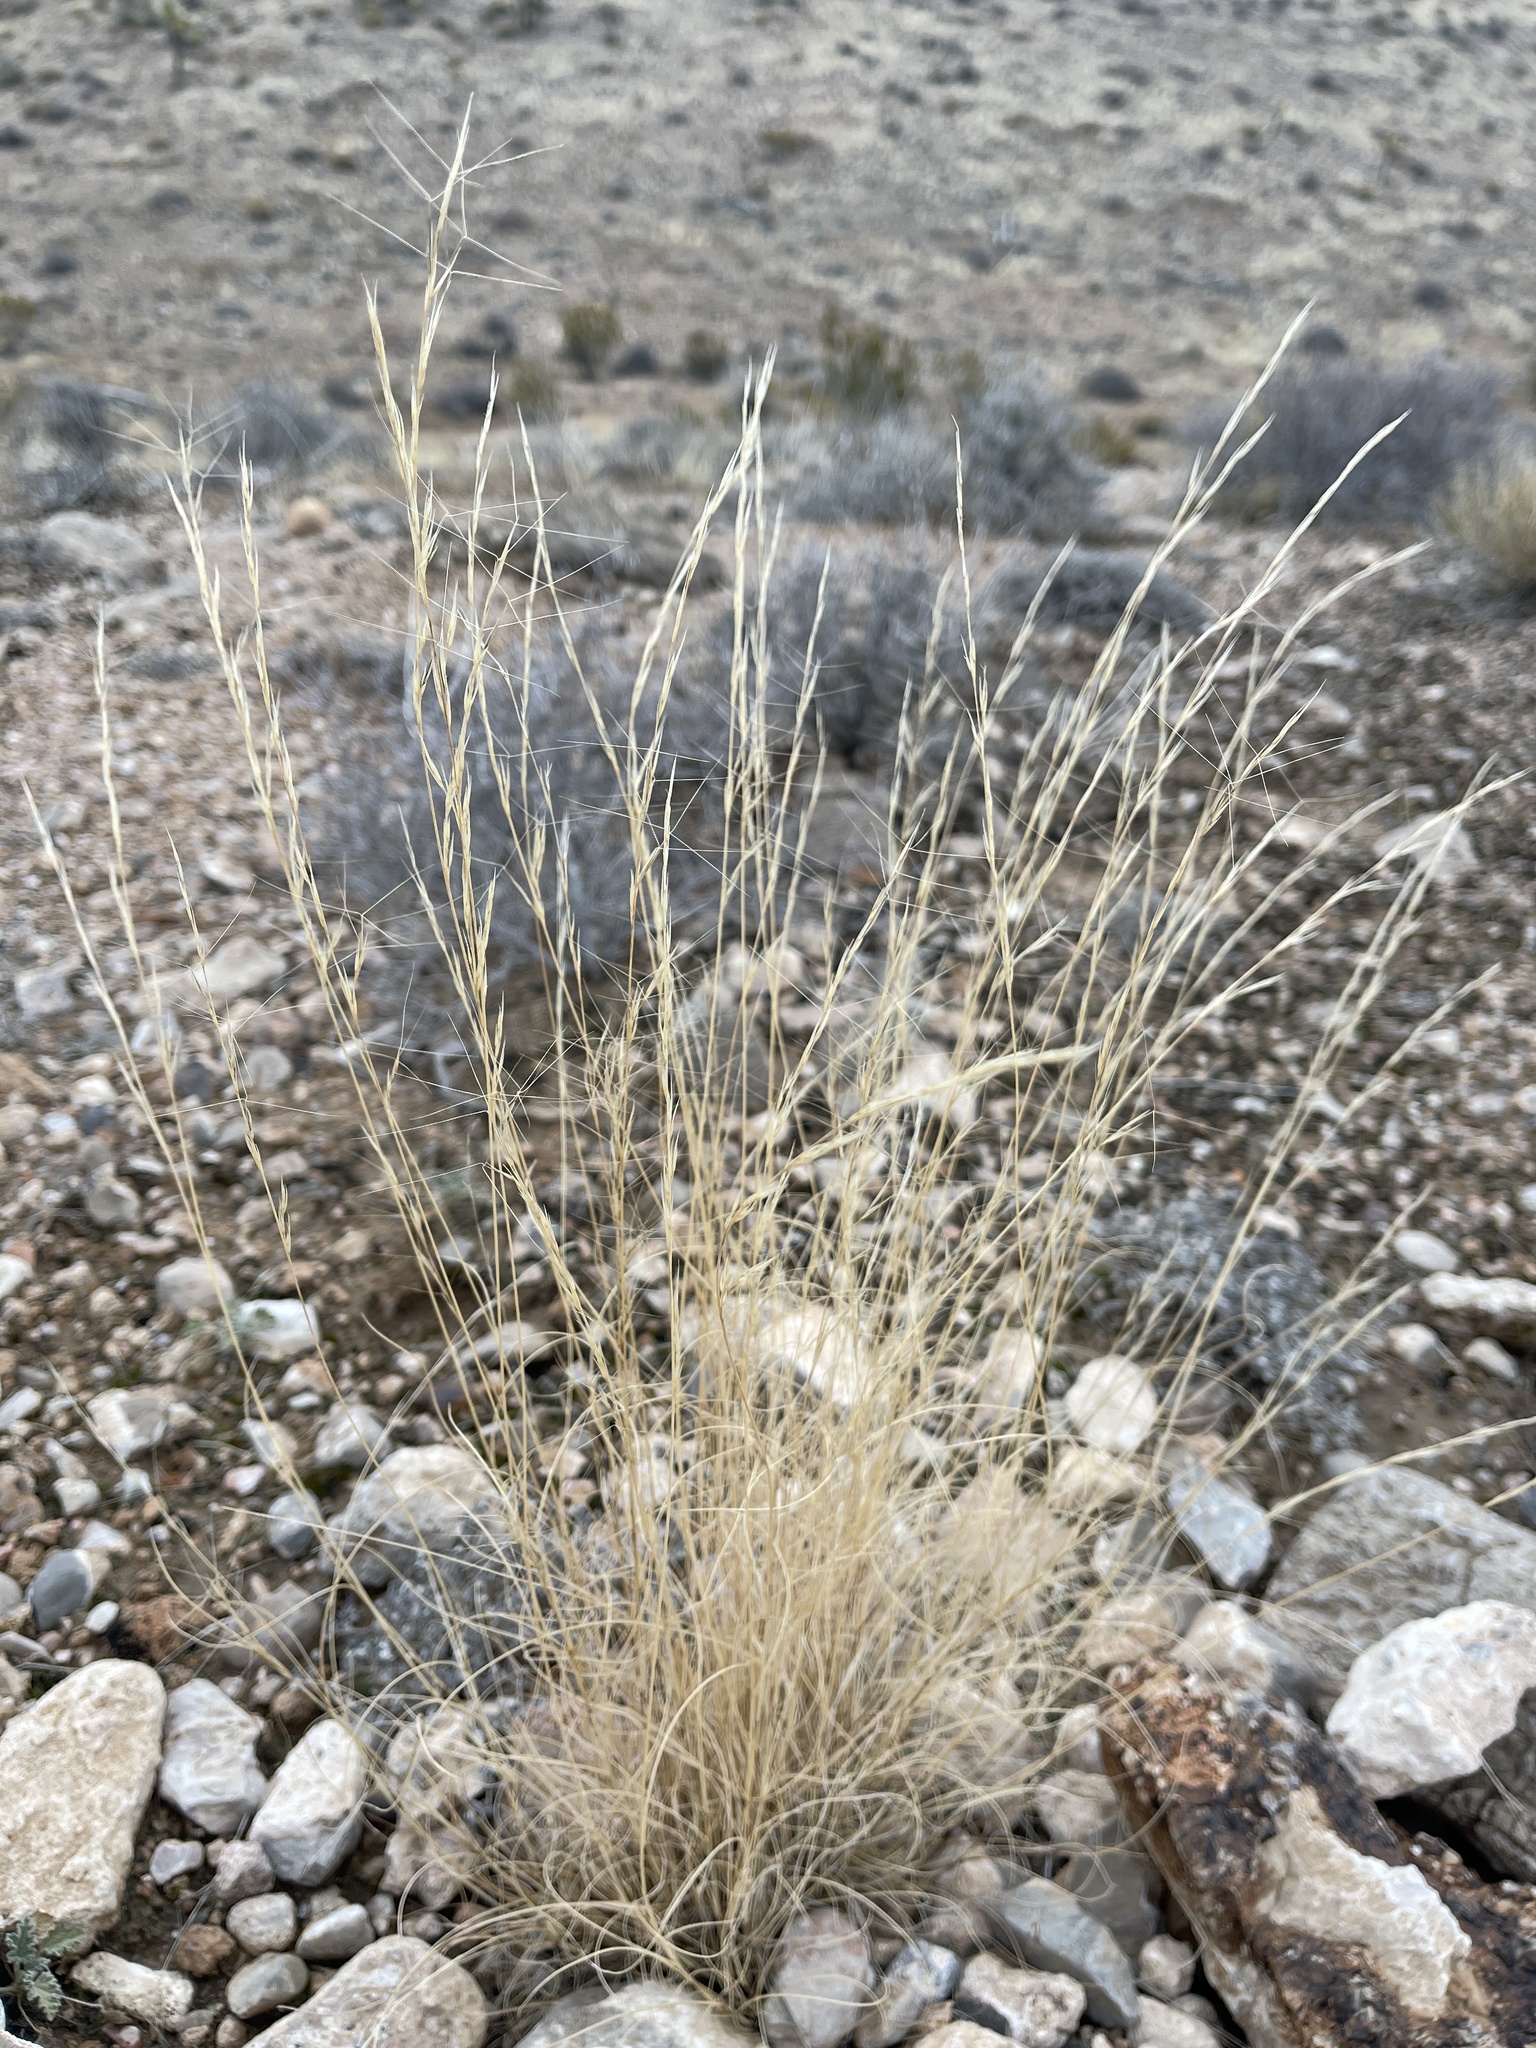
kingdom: Plantae
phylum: Tracheophyta
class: Liliopsida
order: Poales
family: Poaceae
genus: Aristida
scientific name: Aristida purpurea
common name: Purple threeawn
